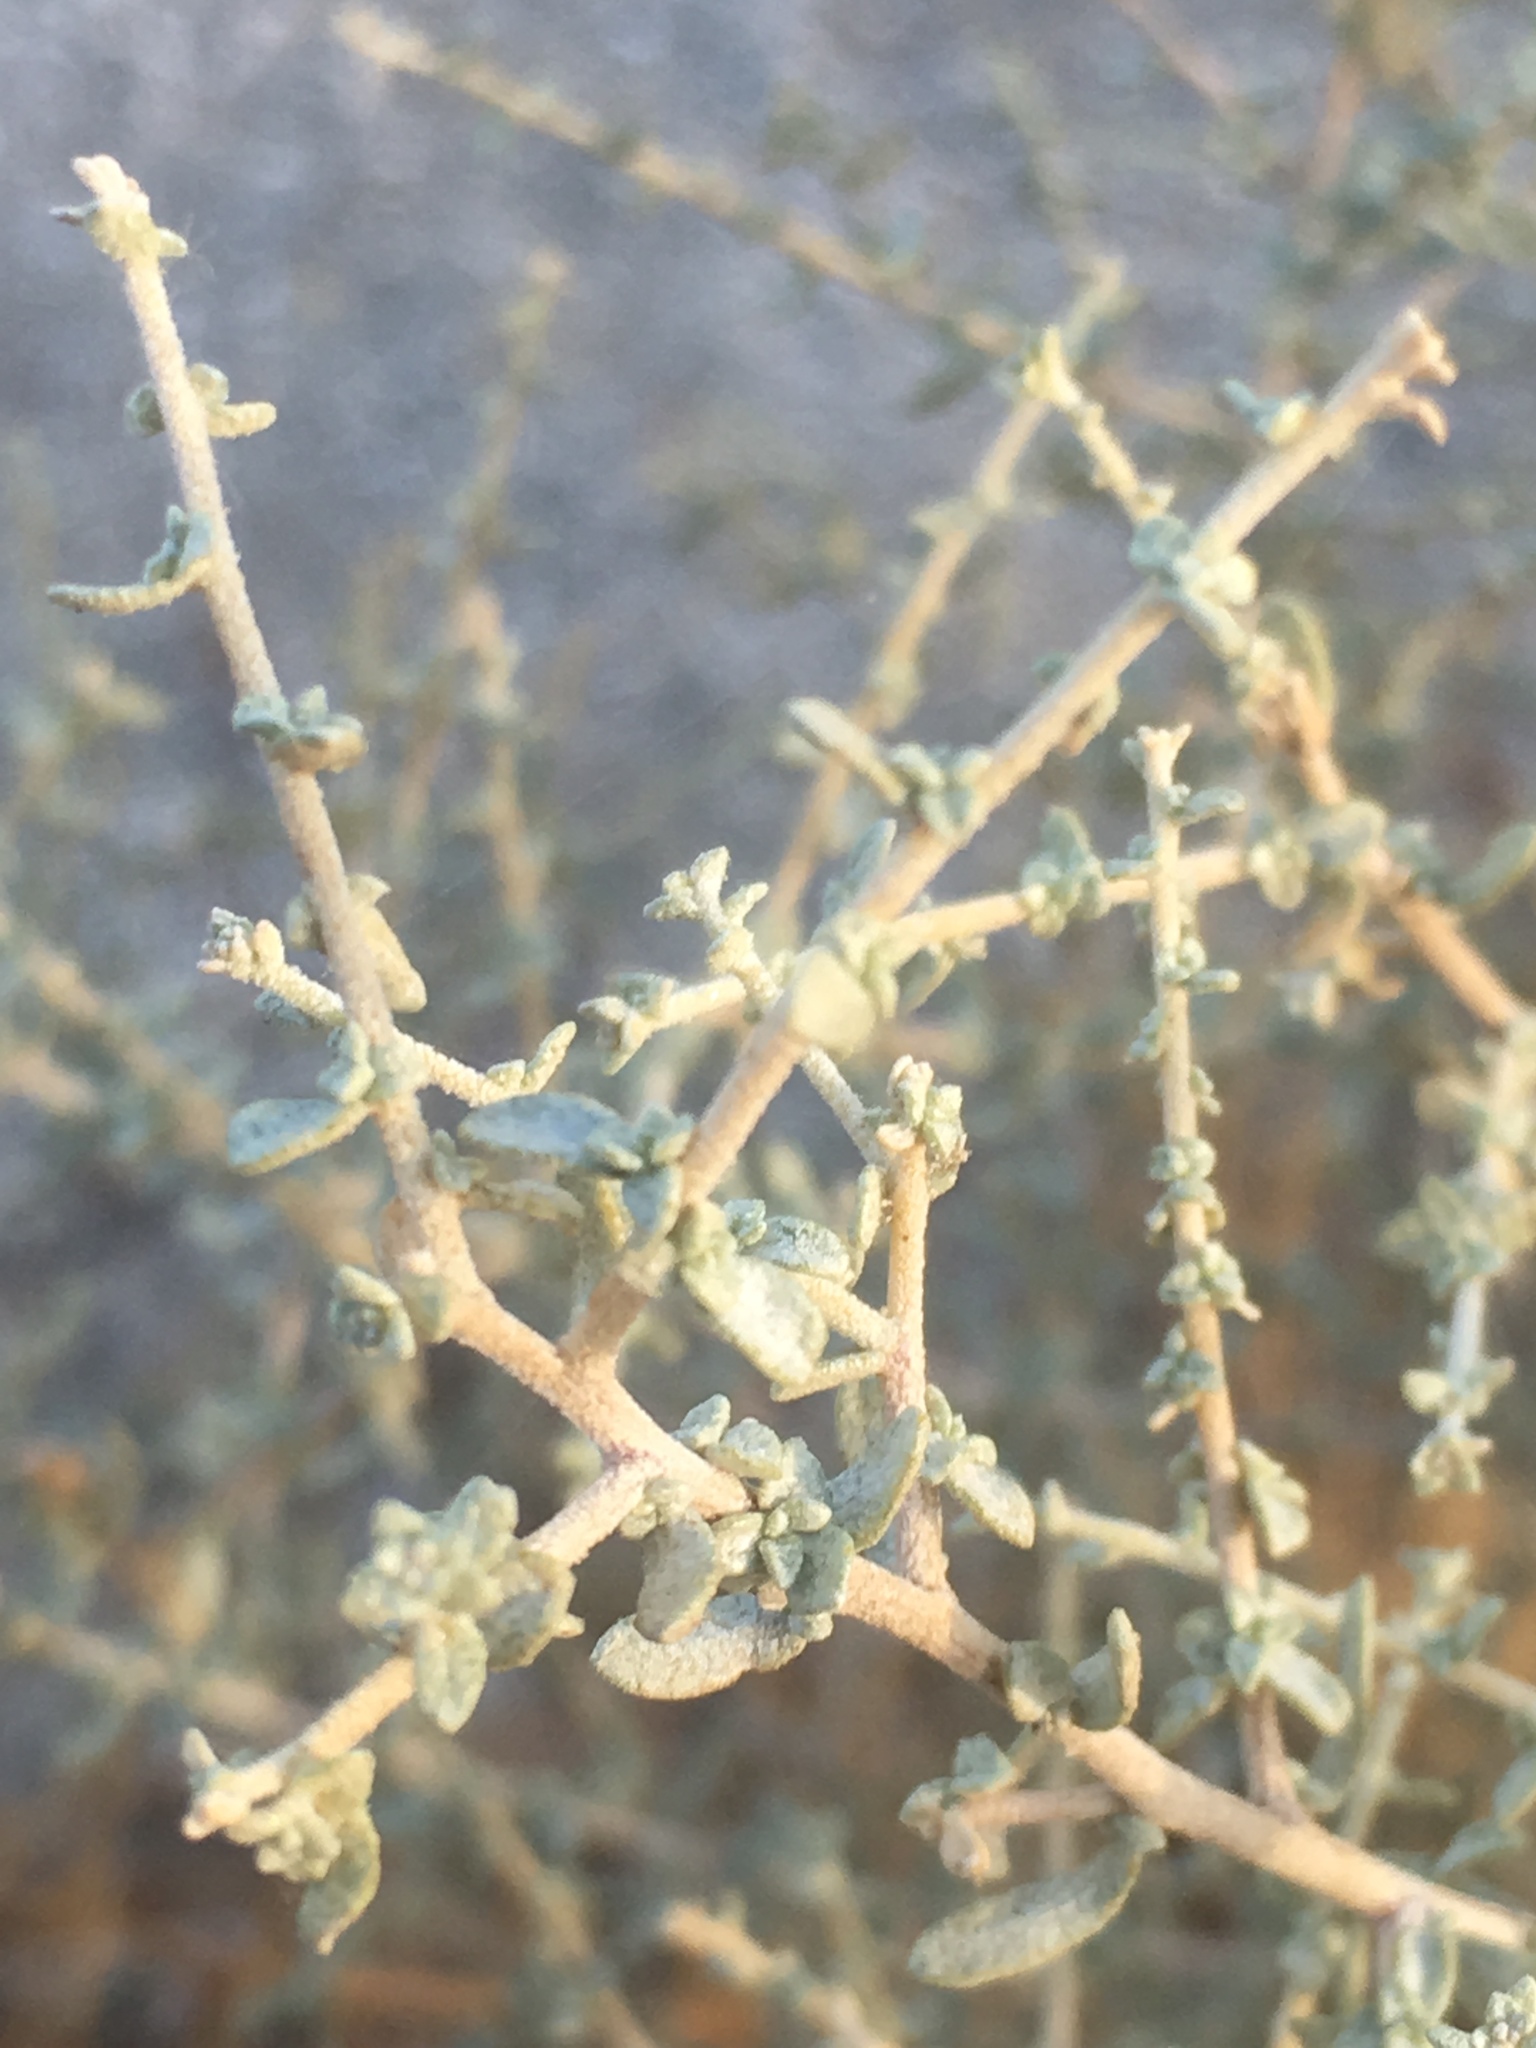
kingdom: Plantae
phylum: Tracheophyta
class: Magnoliopsida
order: Caryophyllales
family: Amaranthaceae
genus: Atriplex
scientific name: Atriplex polycarpa
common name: Desert saltbush
